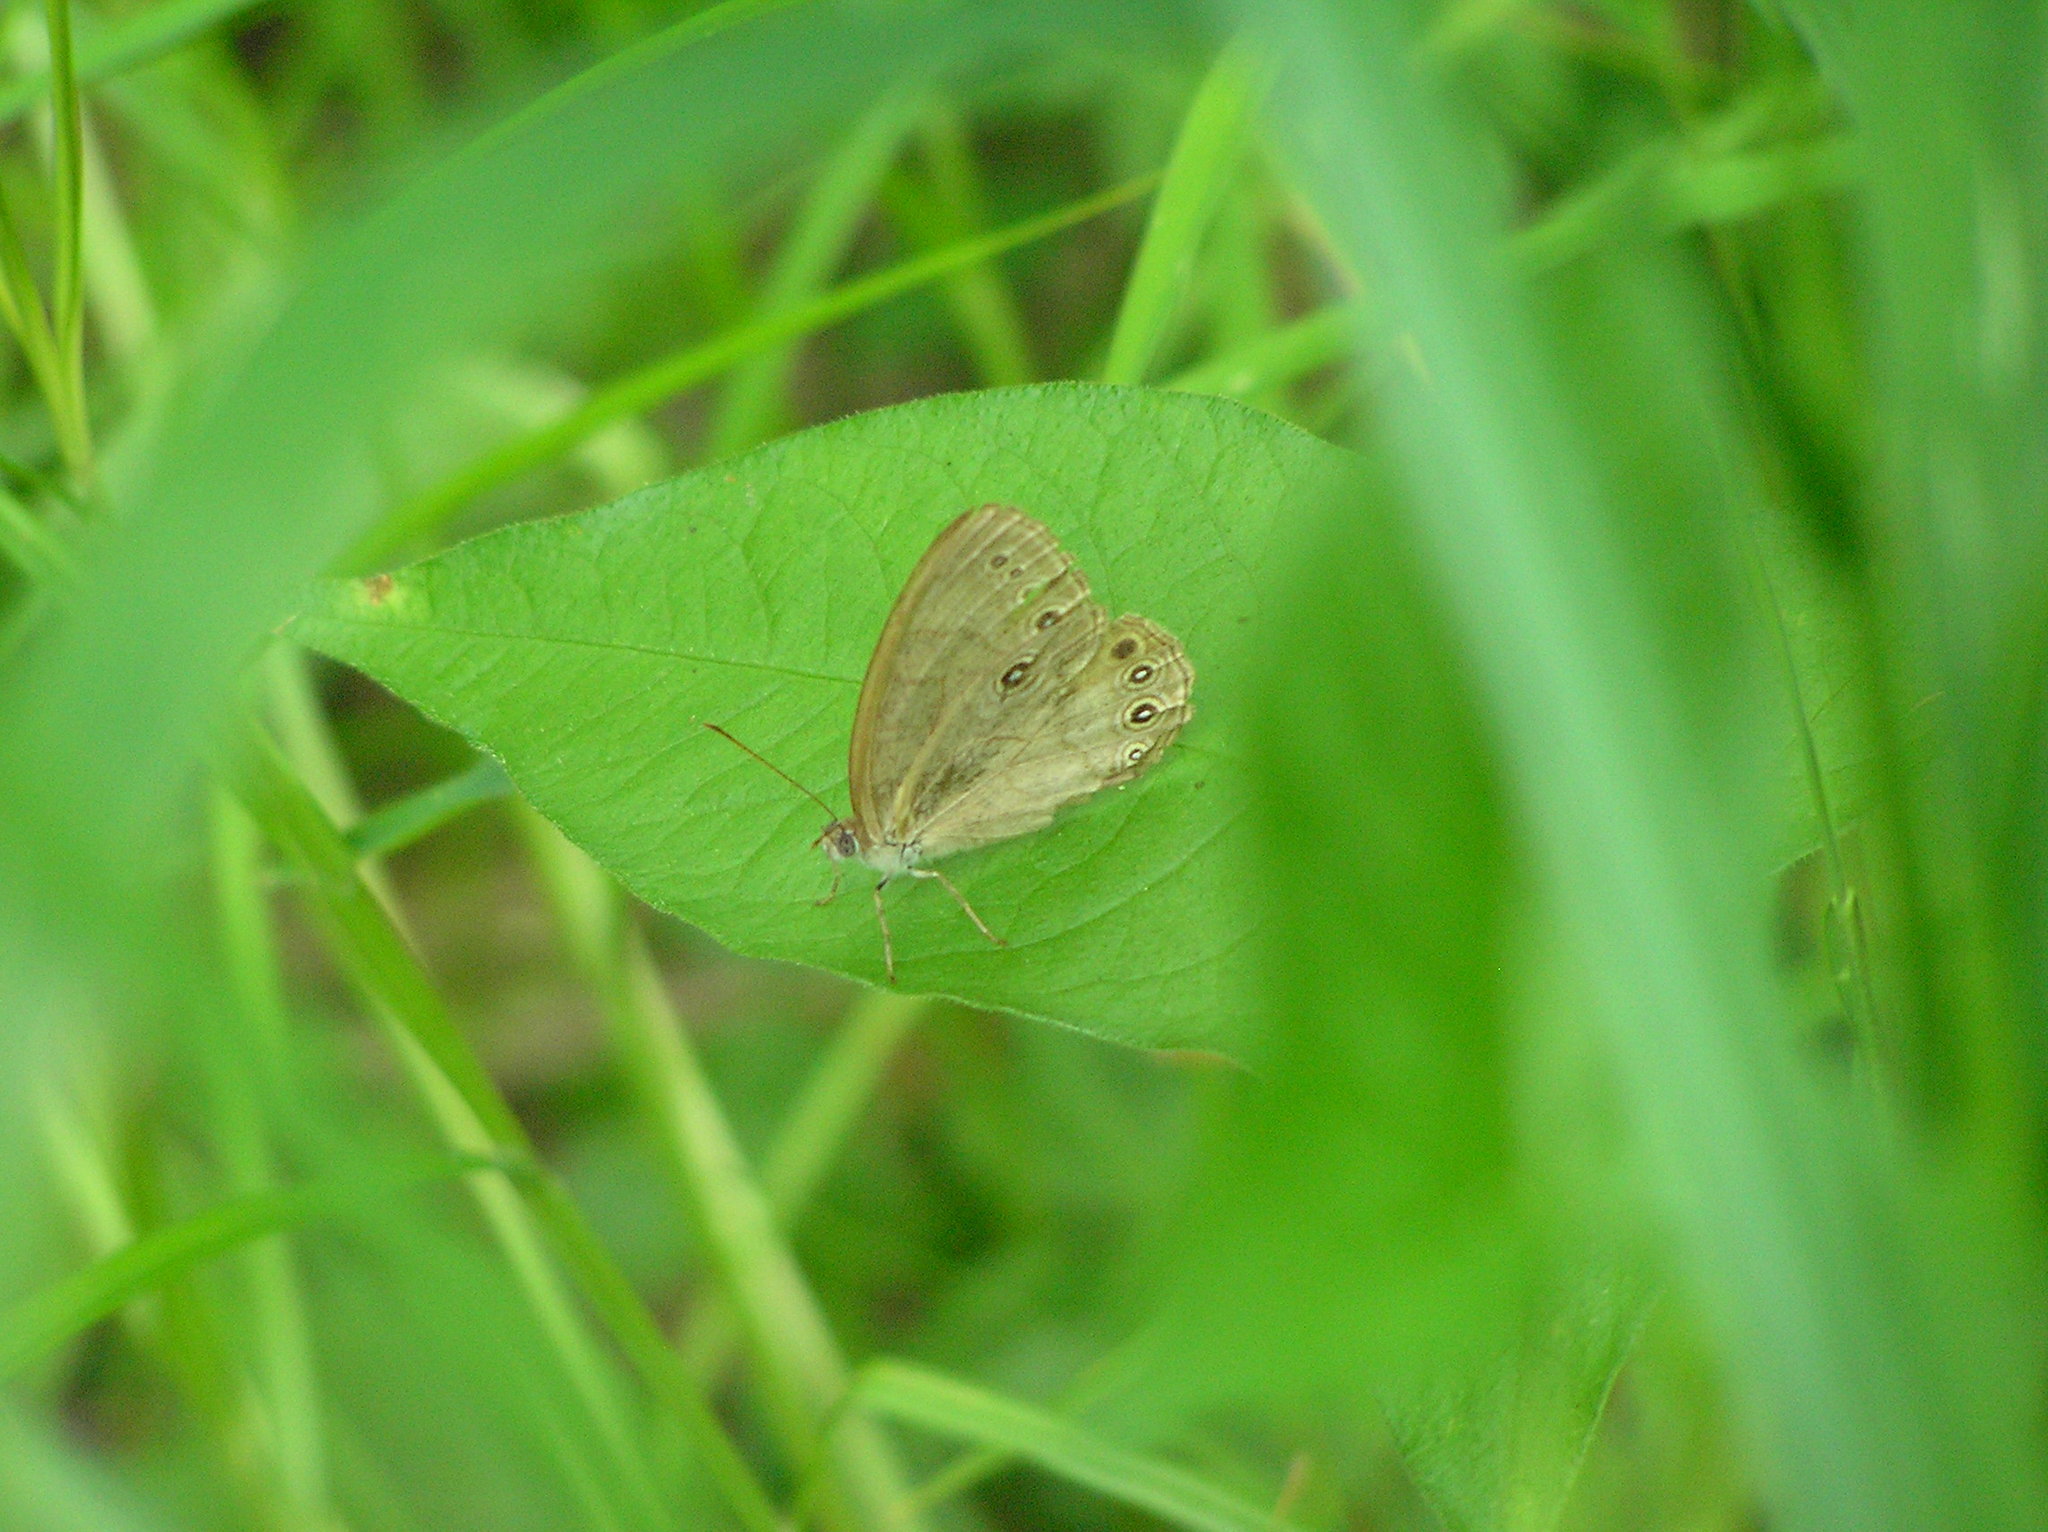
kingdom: Animalia
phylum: Arthropoda
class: Insecta
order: Lepidoptera
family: Nymphalidae
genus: Lethe
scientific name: Lethe eurydice
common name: Eyed brown
